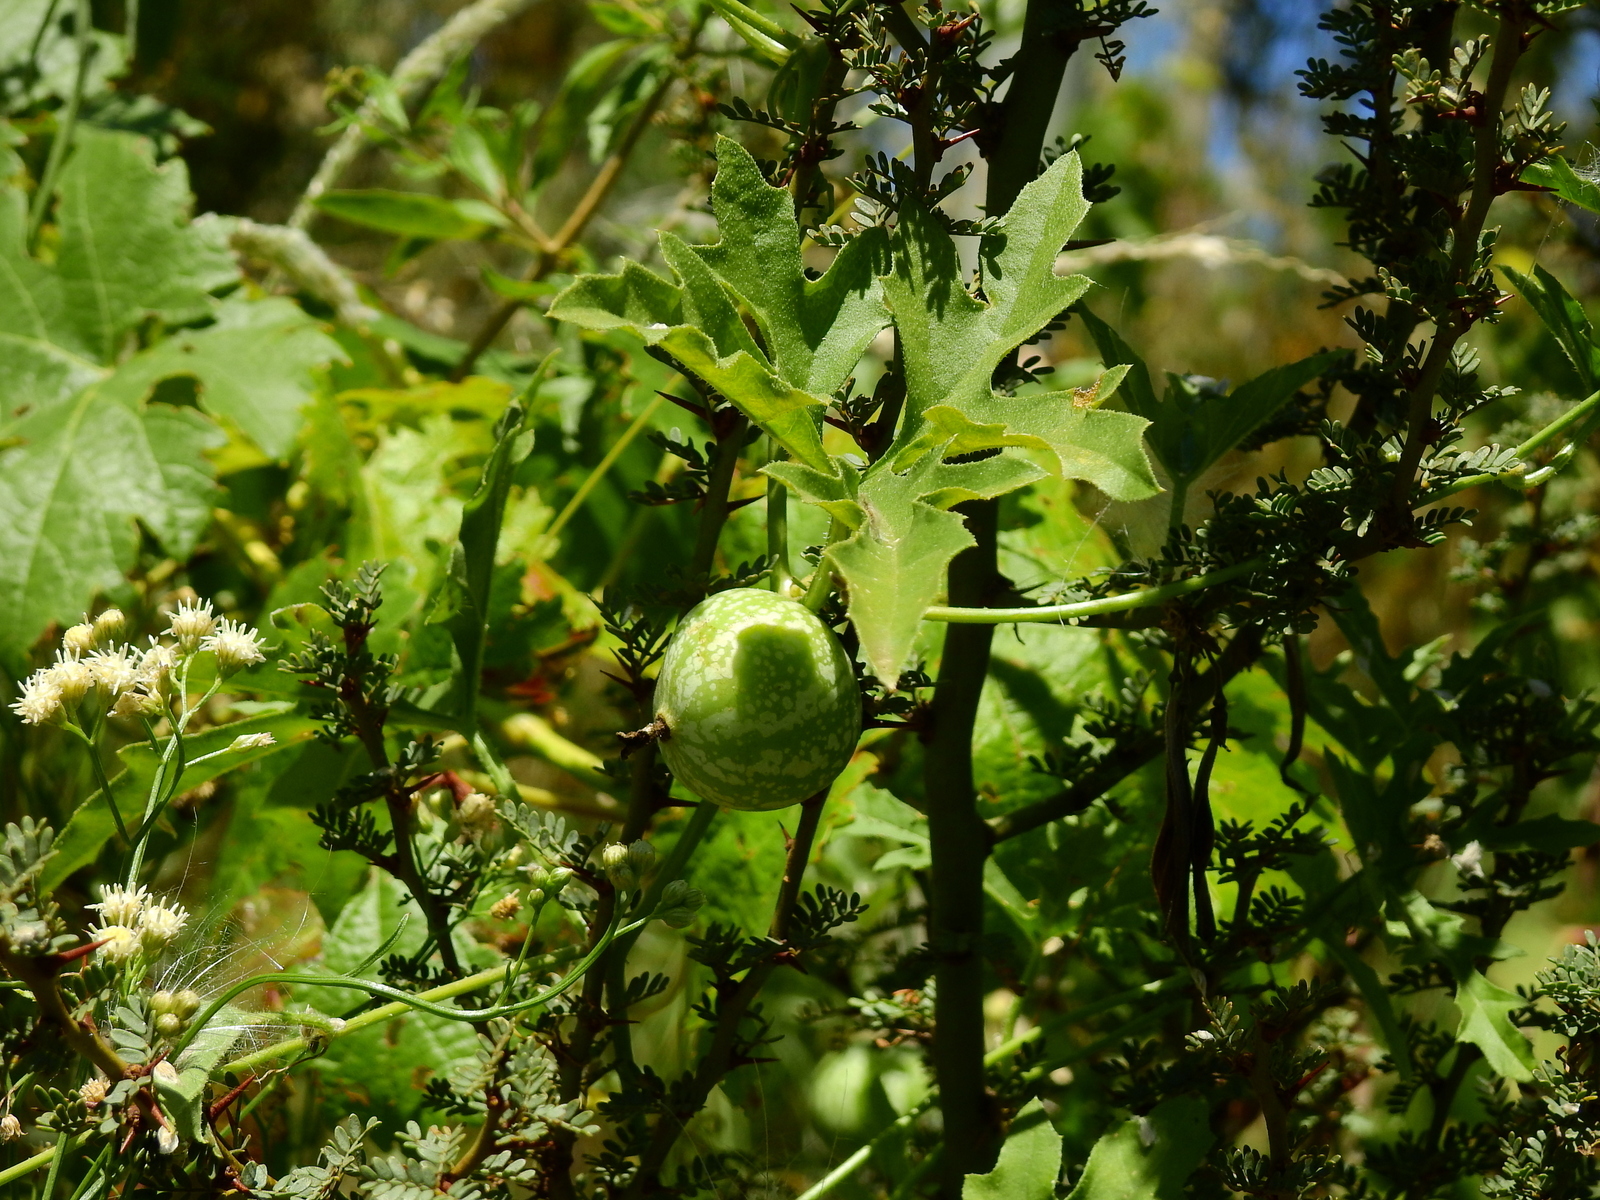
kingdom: Plantae
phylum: Tracheophyta
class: Magnoliopsida
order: Cucurbitales
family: Cucurbitaceae
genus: Cucurbitella
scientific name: Cucurbitella asperata
